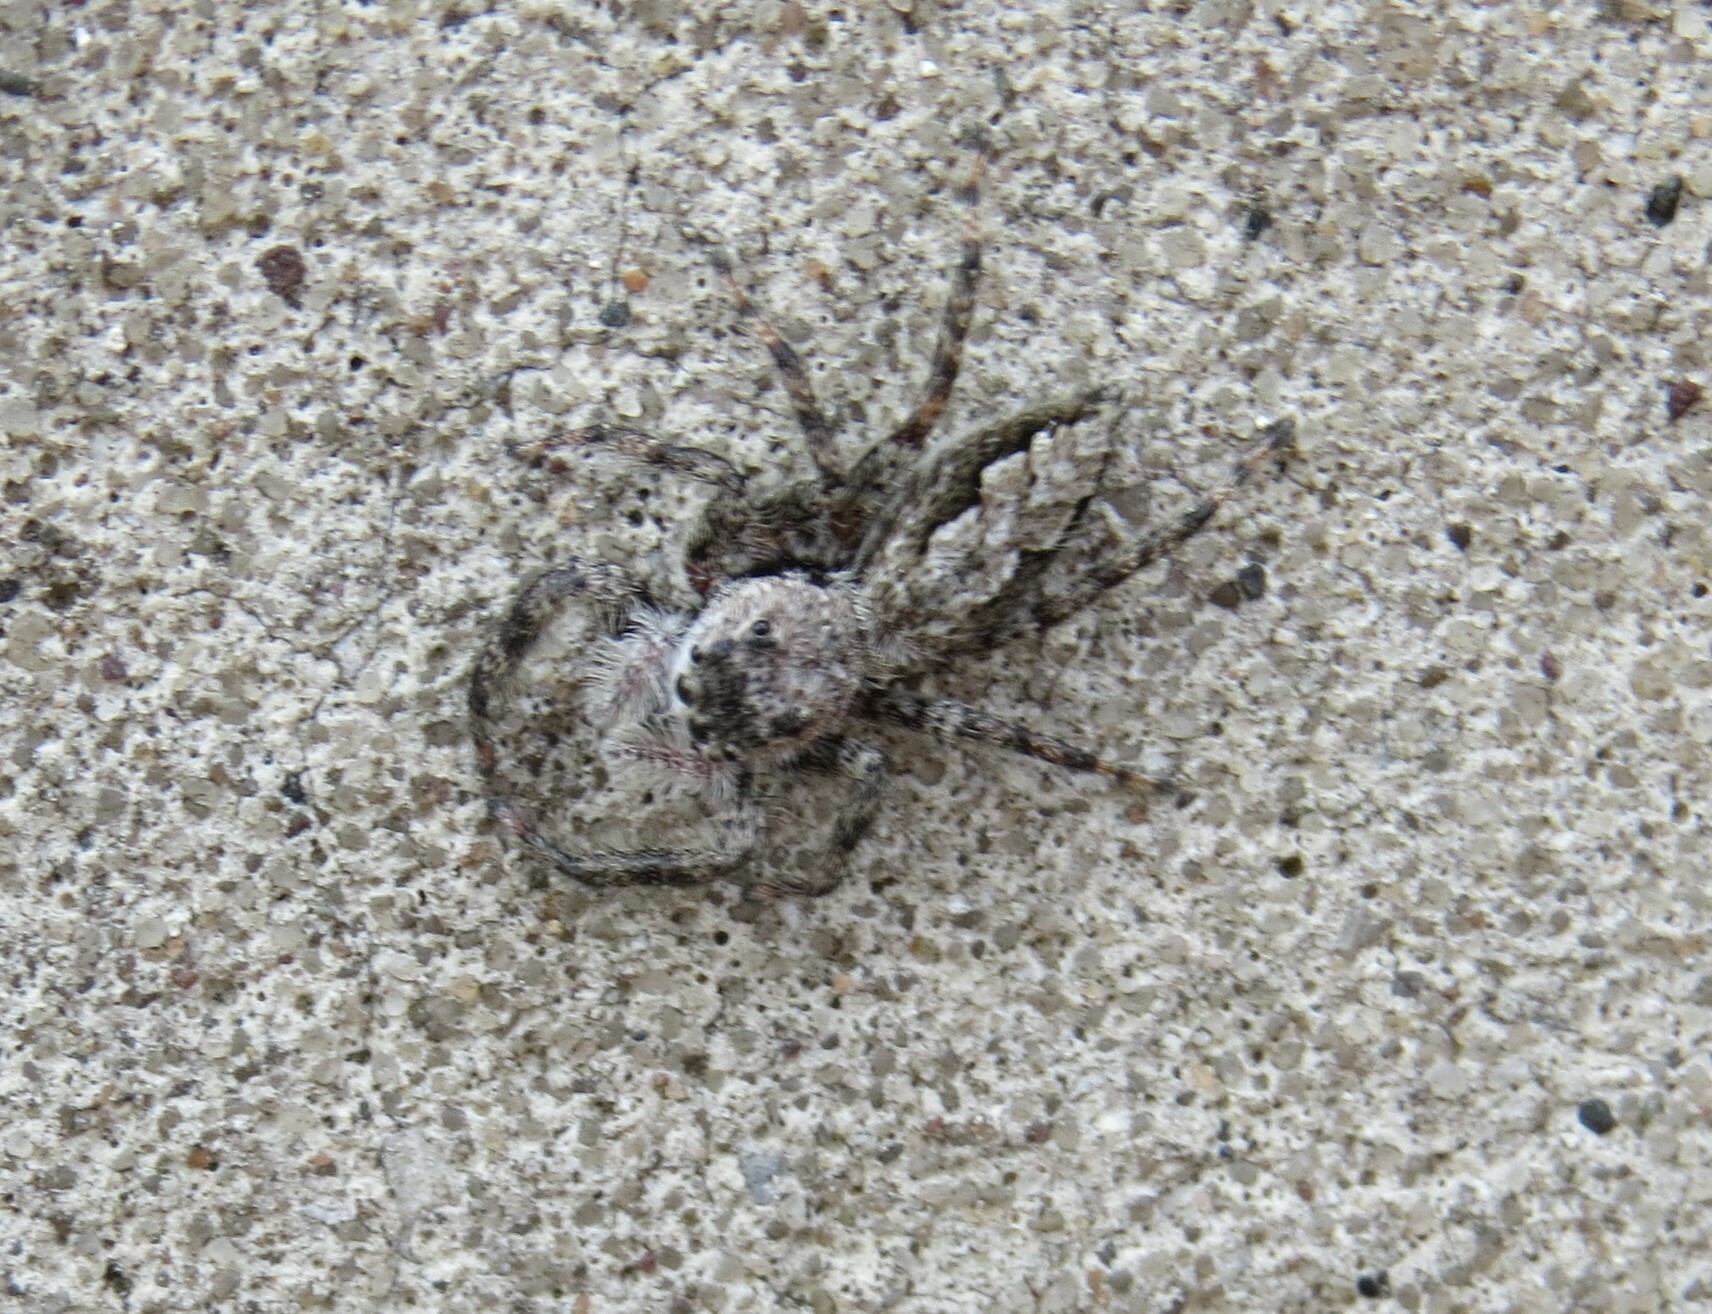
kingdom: Animalia
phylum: Arthropoda
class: Arachnida
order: Araneae
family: Salticidae
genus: Platycryptus
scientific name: Platycryptus undatus
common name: Tan jumping spider
